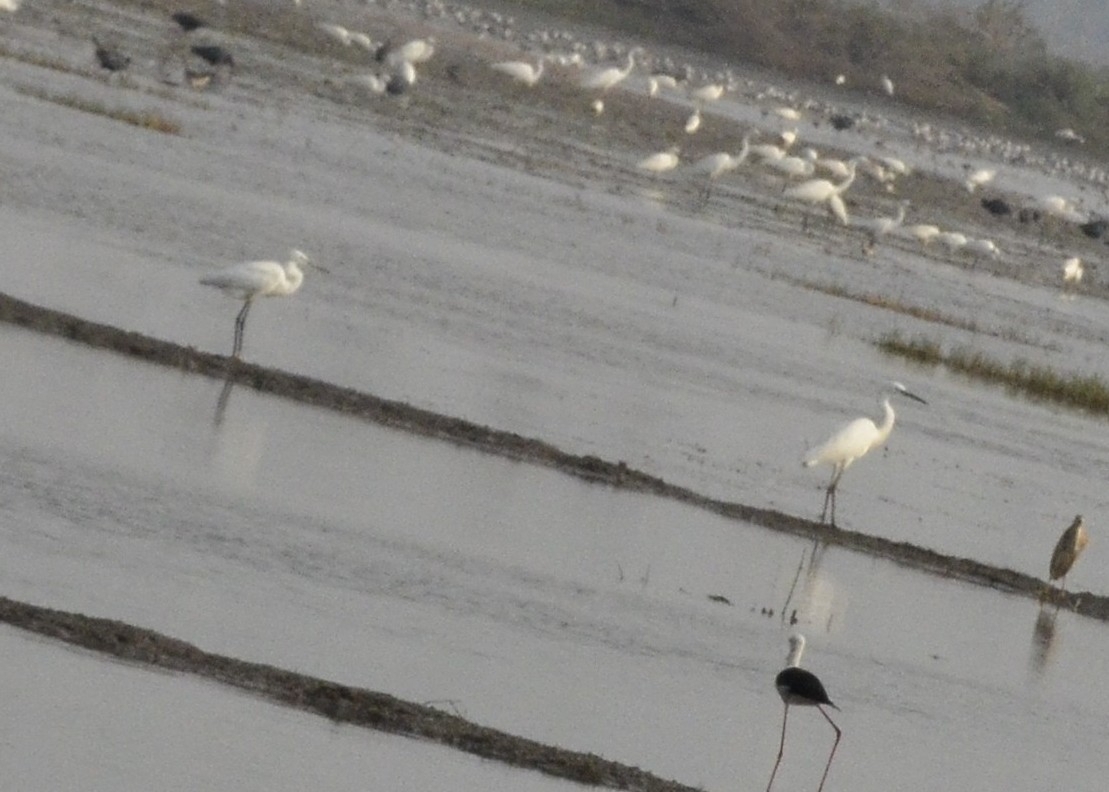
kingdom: Animalia
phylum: Chordata
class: Aves
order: Pelecaniformes
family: Ardeidae
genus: Egretta
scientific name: Egretta garzetta
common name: Little egret
